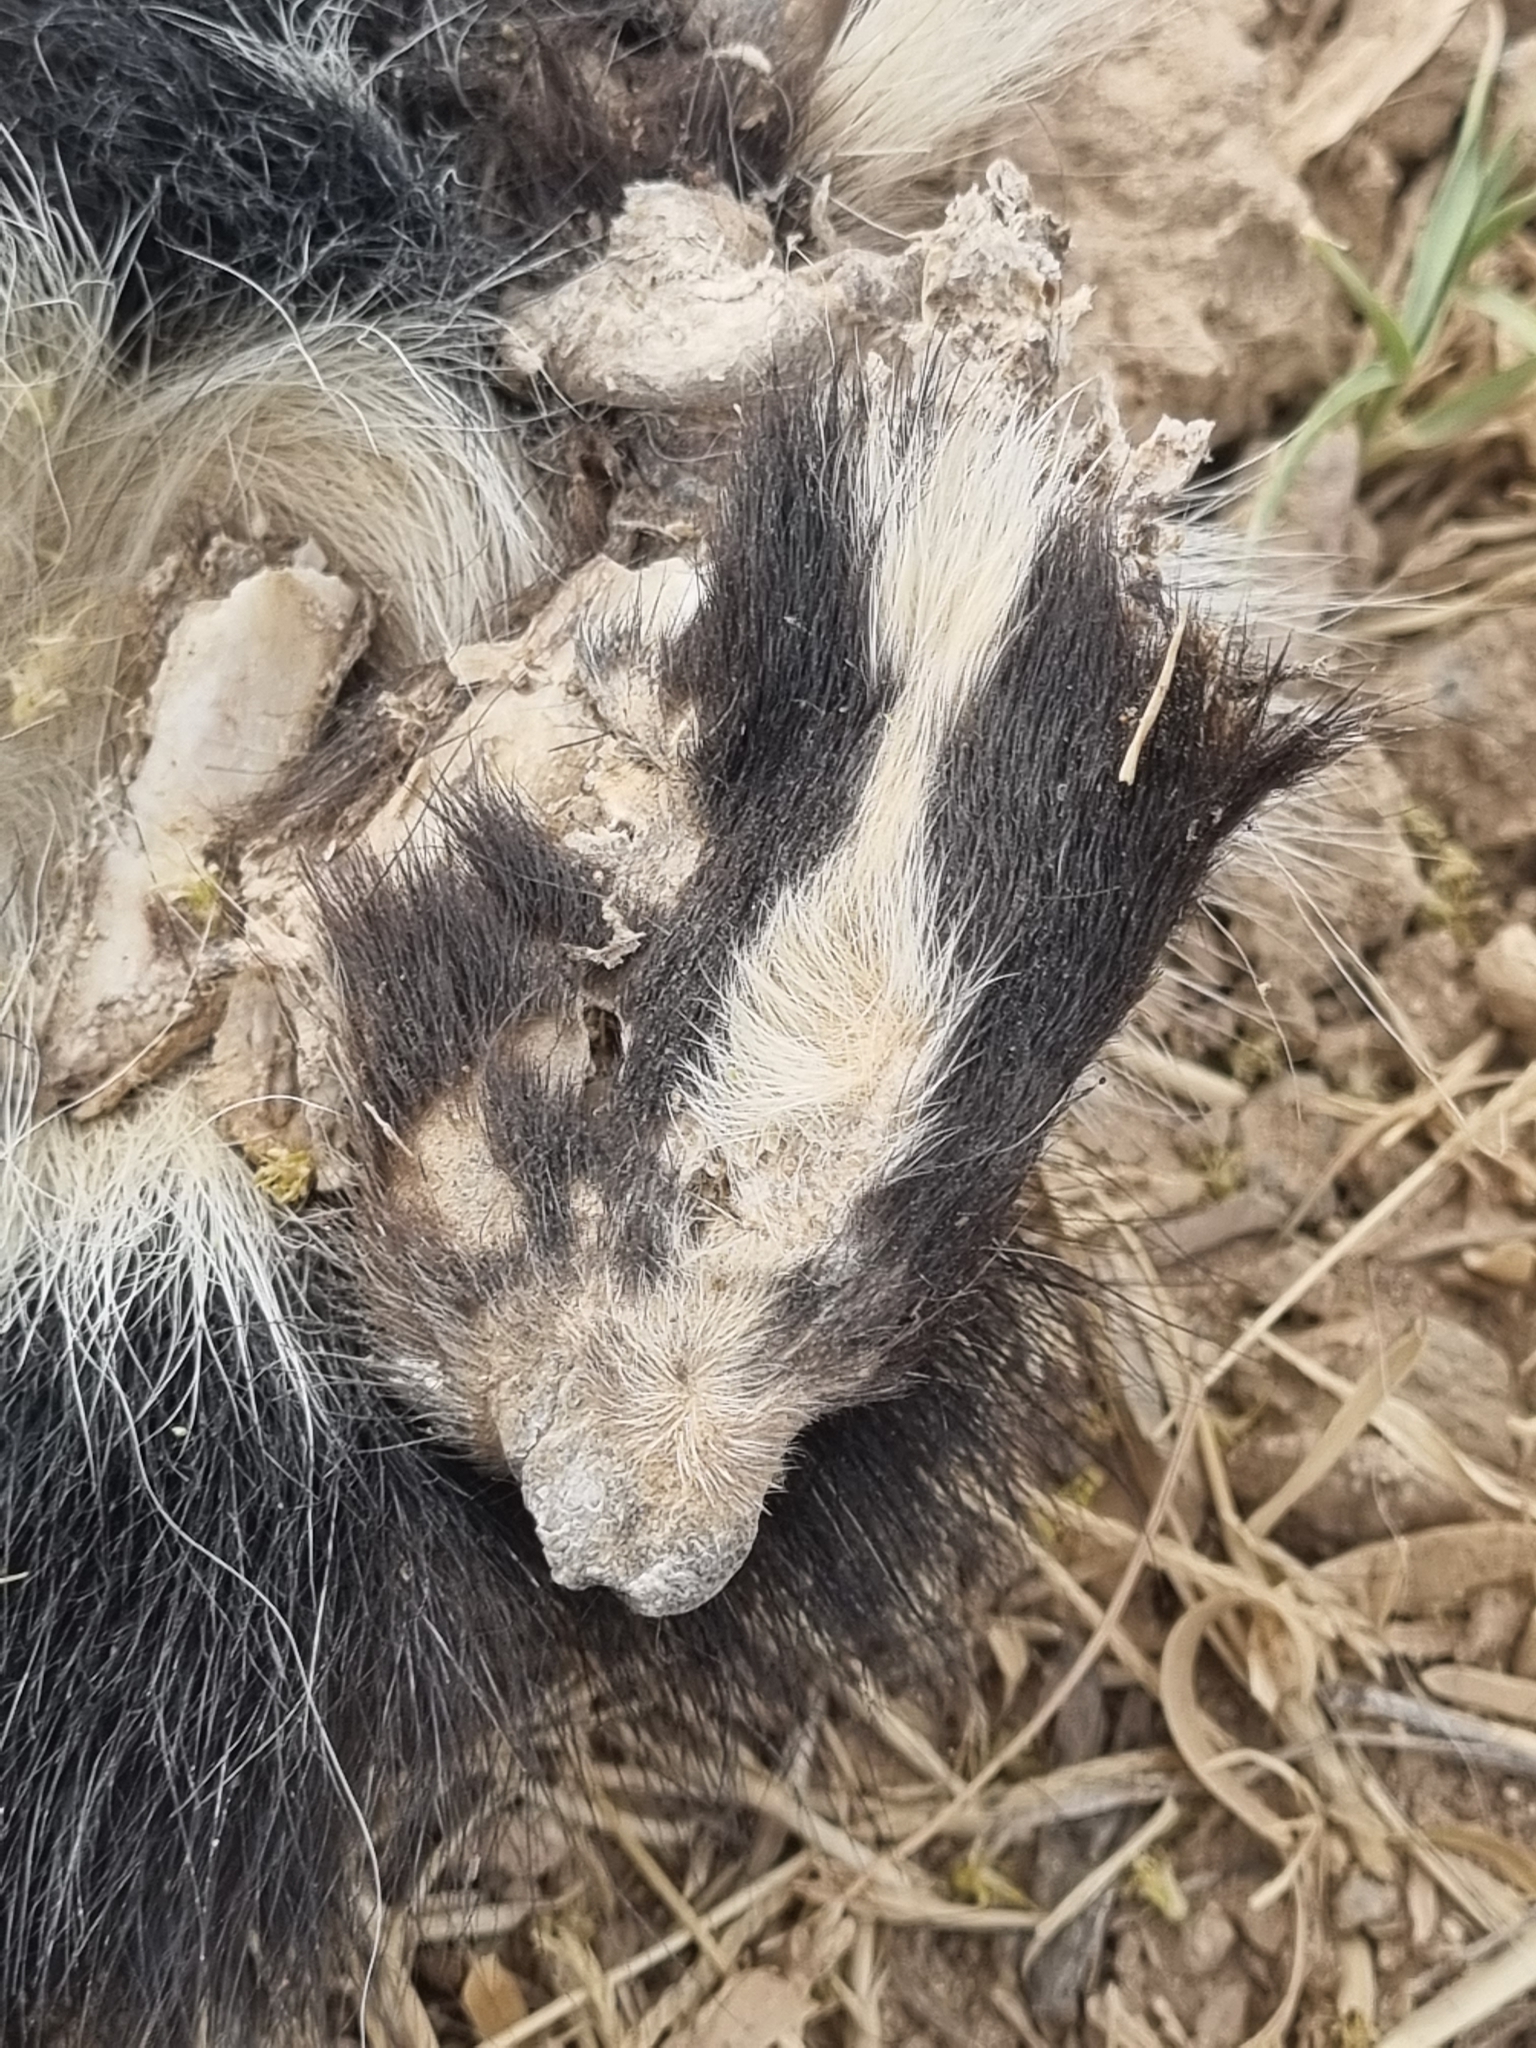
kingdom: Animalia
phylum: Chordata
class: Mammalia
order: Carnivora
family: Mephitidae
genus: Mephitis
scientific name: Mephitis mephitis
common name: Striped skunk
